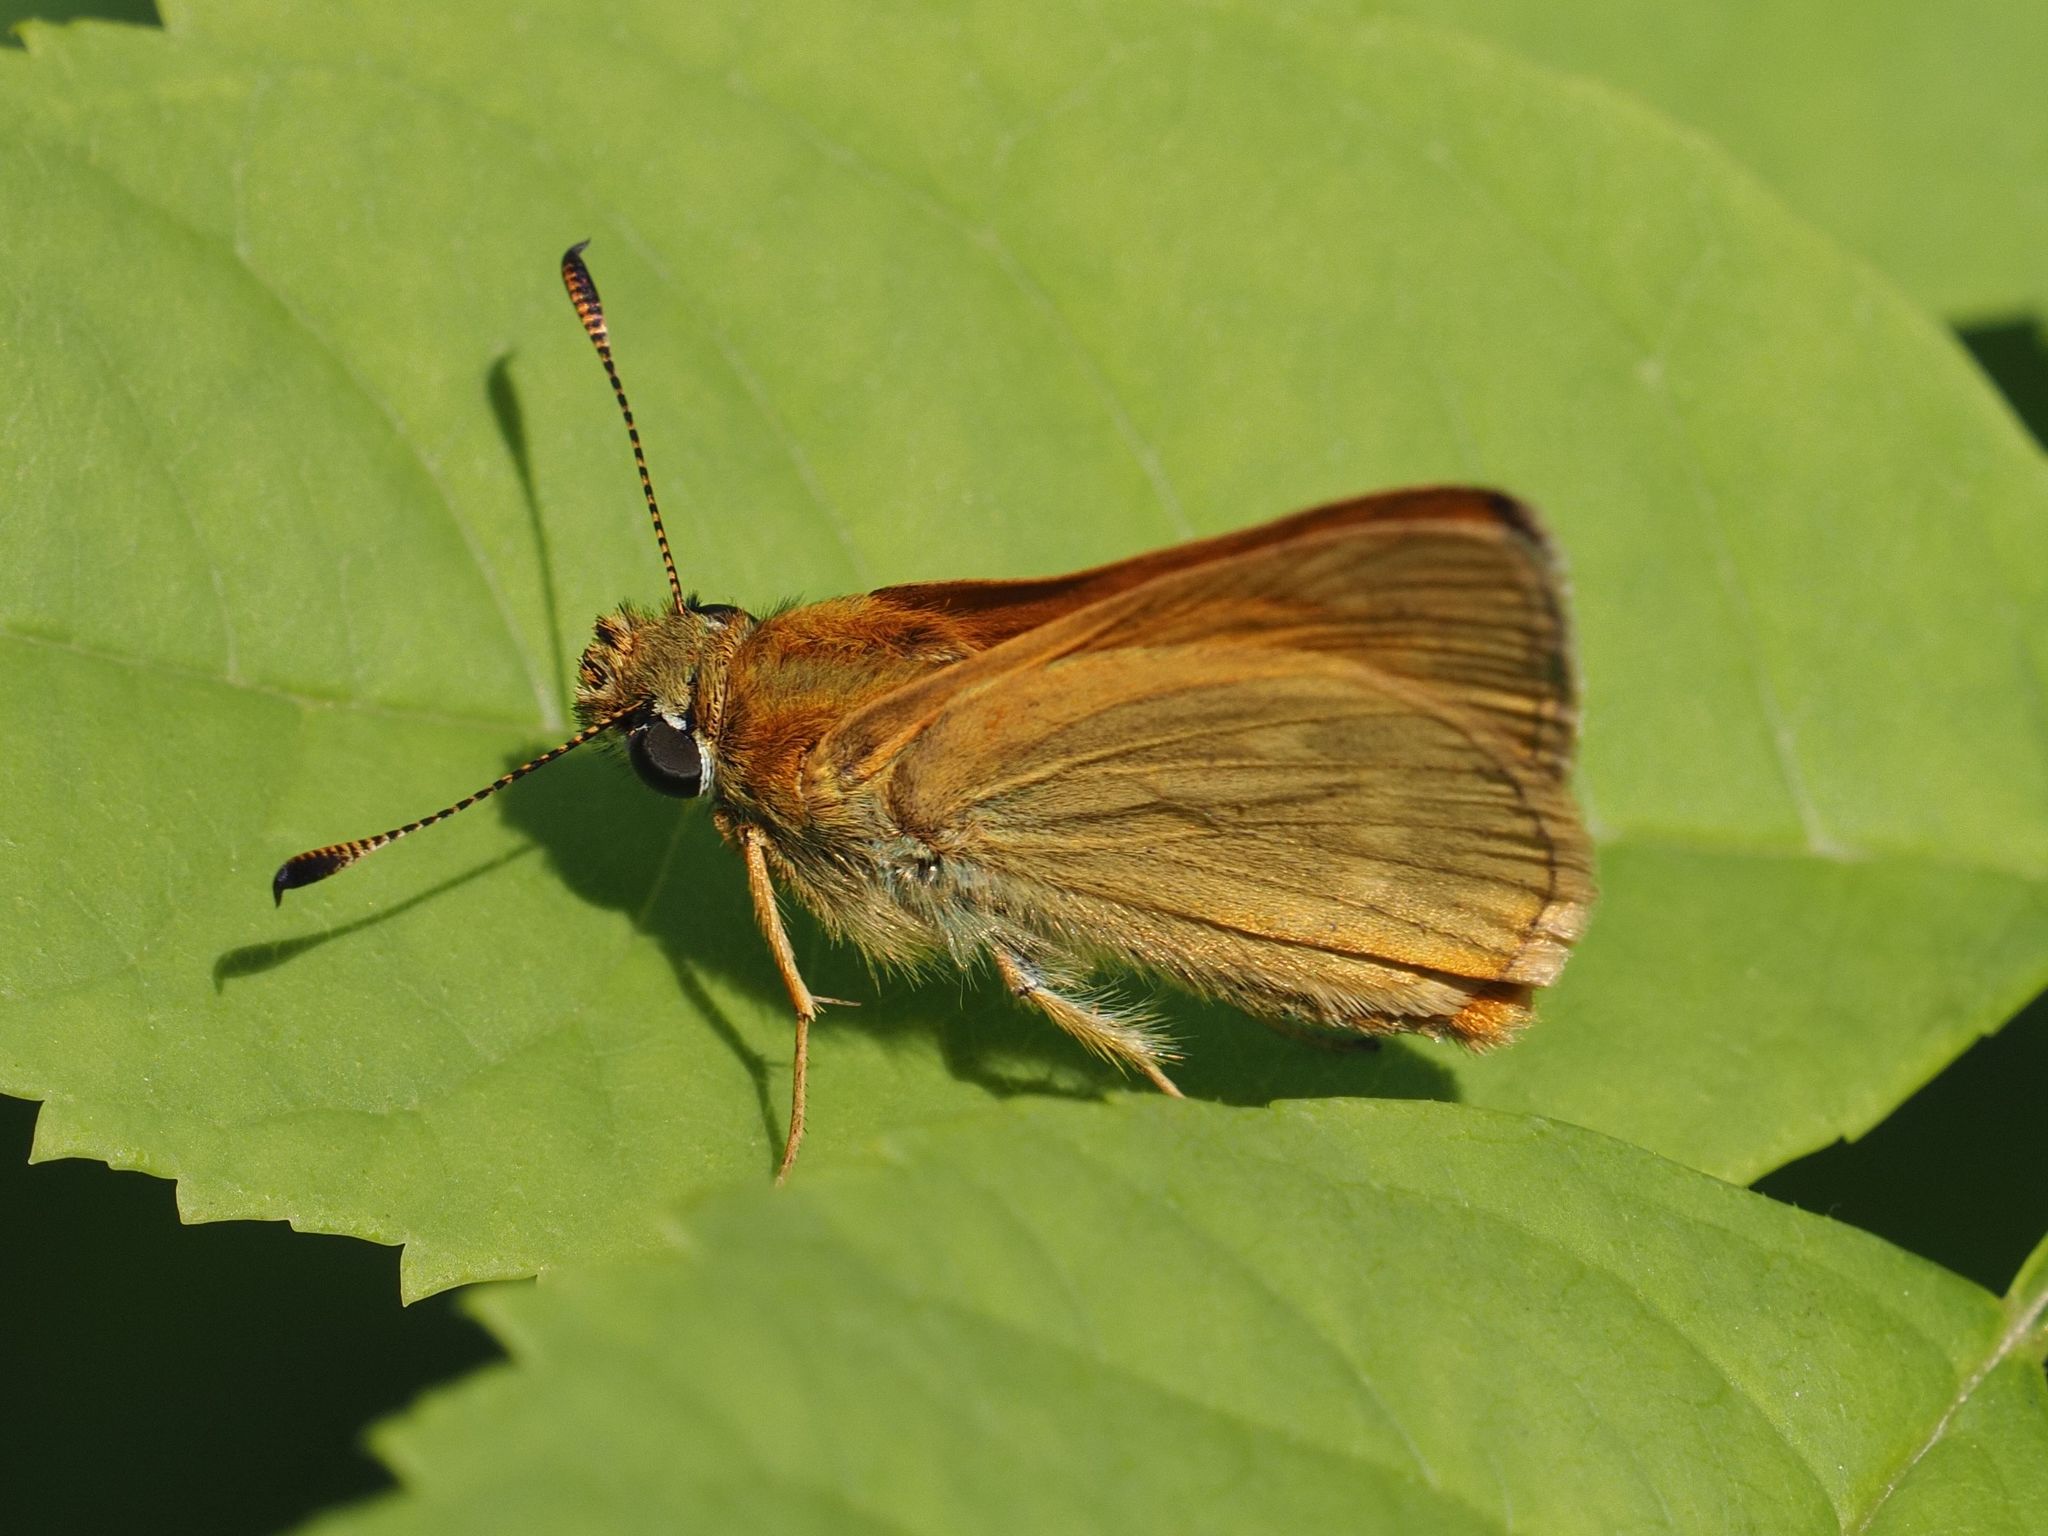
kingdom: Animalia
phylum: Arthropoda
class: Insecta
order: Lepidoptera
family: Hesperiidae
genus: Ochlodes
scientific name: Ochlodes venata
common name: Large skipper
